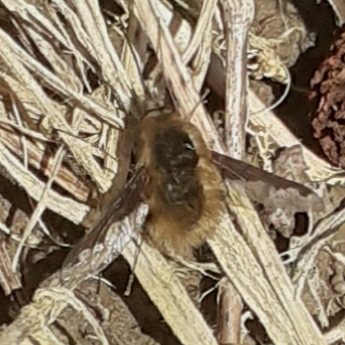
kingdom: Animalia
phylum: Arthropoda
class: Insecta
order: Diptera
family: Bombyliidae
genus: Bombylius
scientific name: Bombylius major
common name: Bee fly
